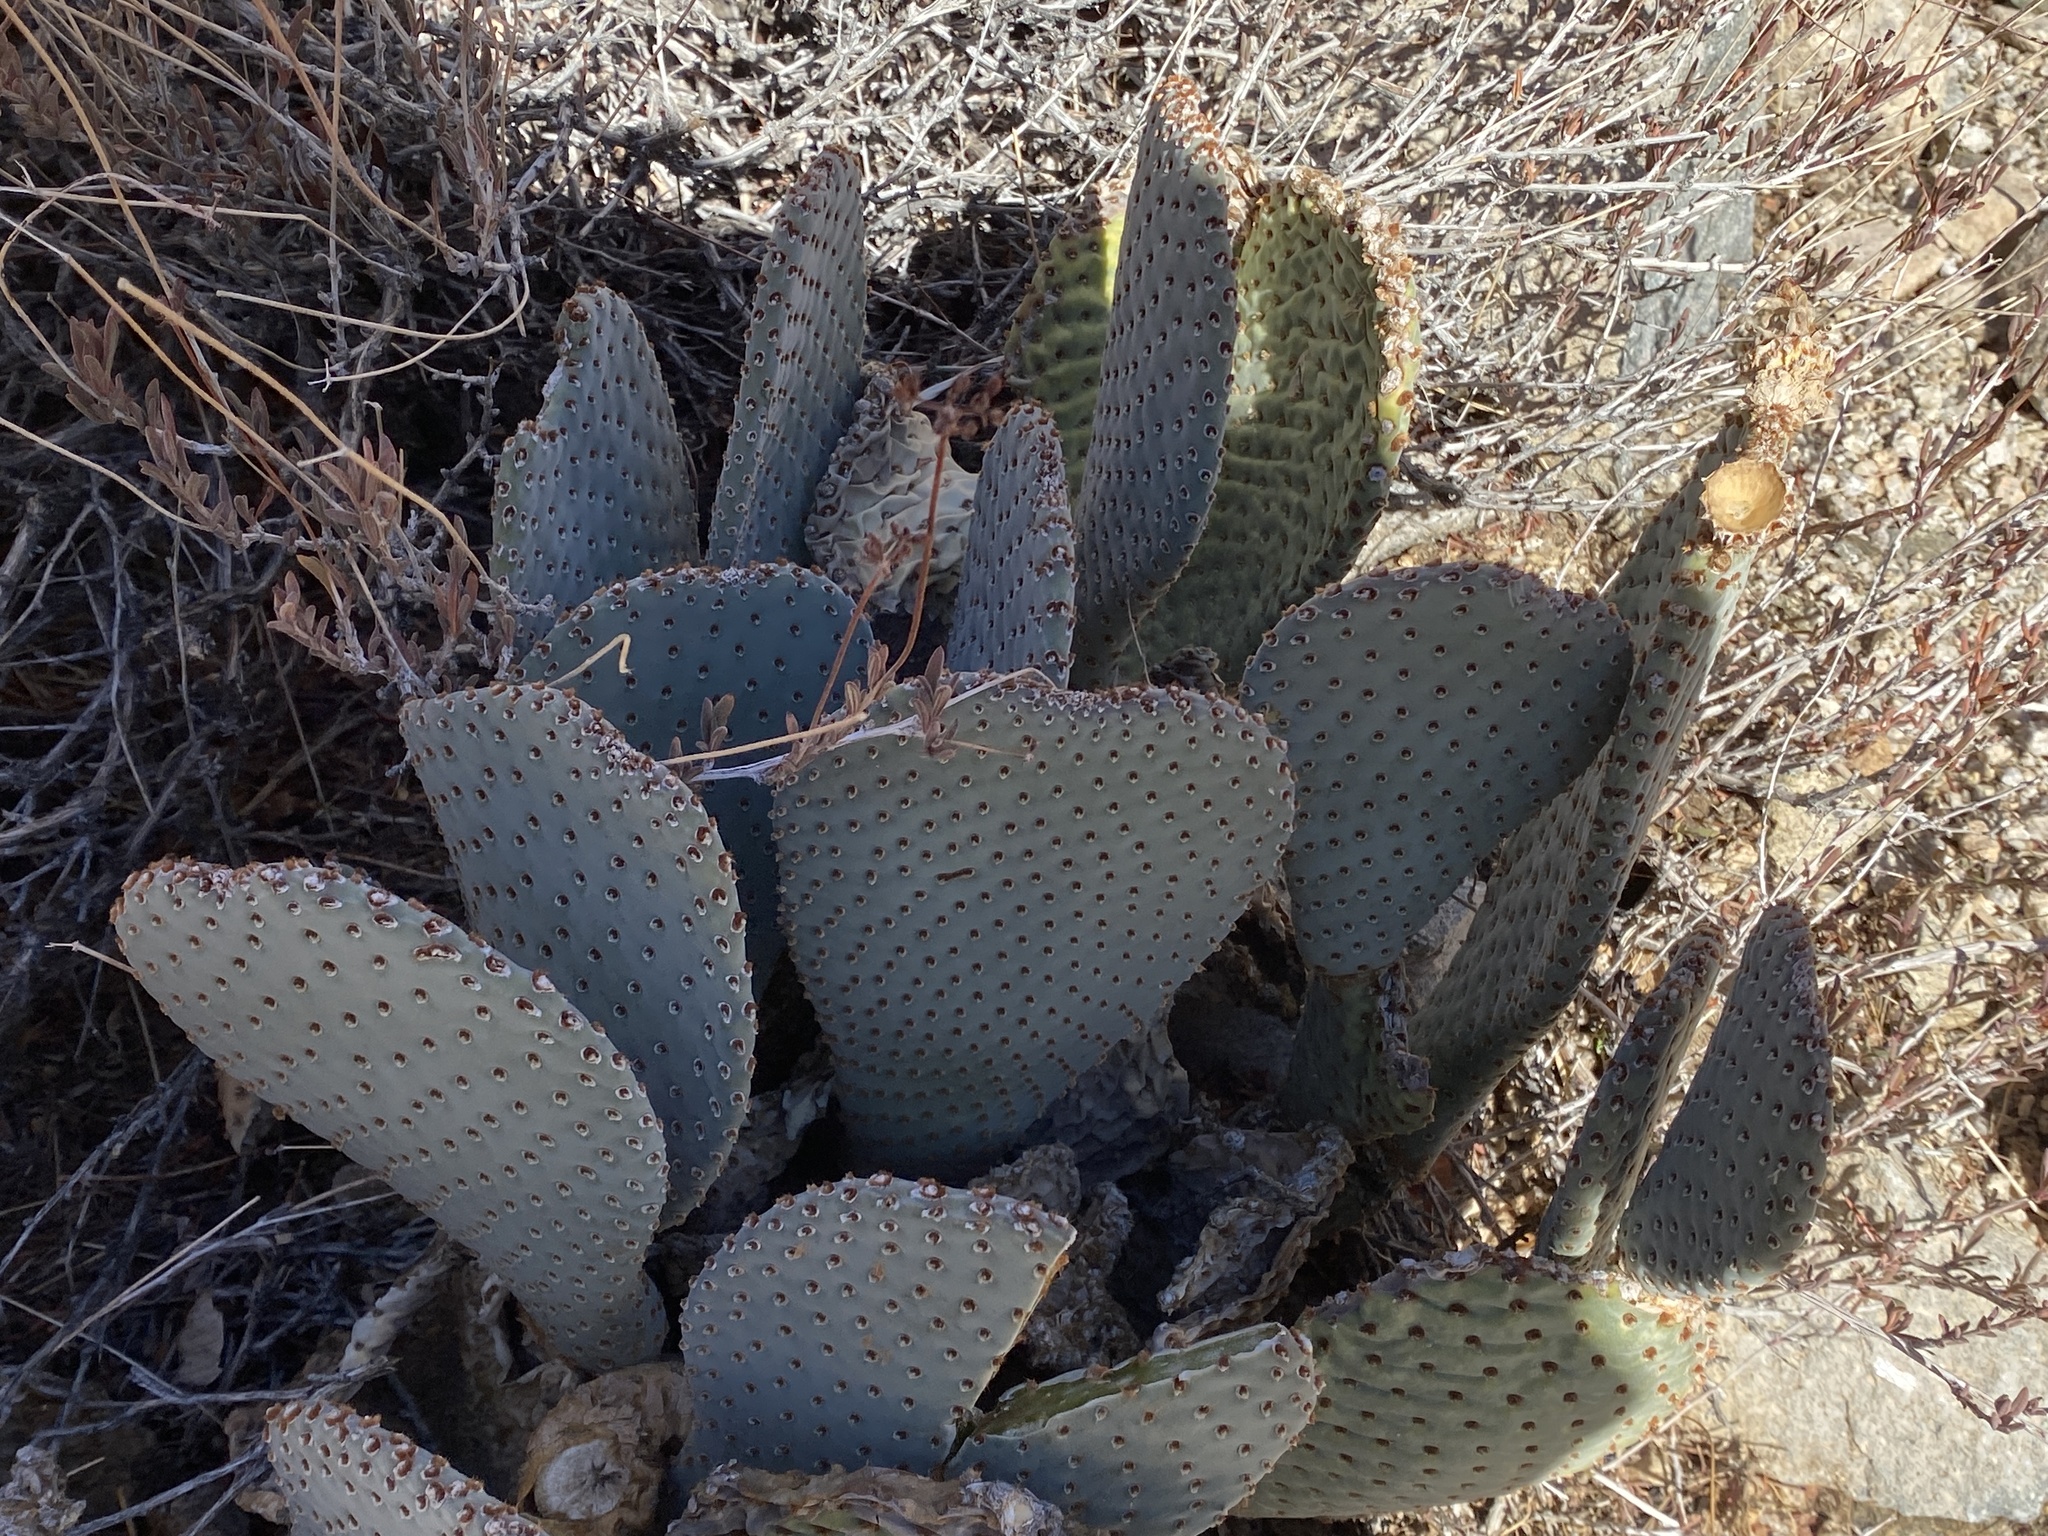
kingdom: Plantae
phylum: Tracheophyta
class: Magnoliopsida
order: Caryophyllales
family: Cactaceae
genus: Opuntia
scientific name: Opuntia basilaris
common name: Beavertail prickly-pear
